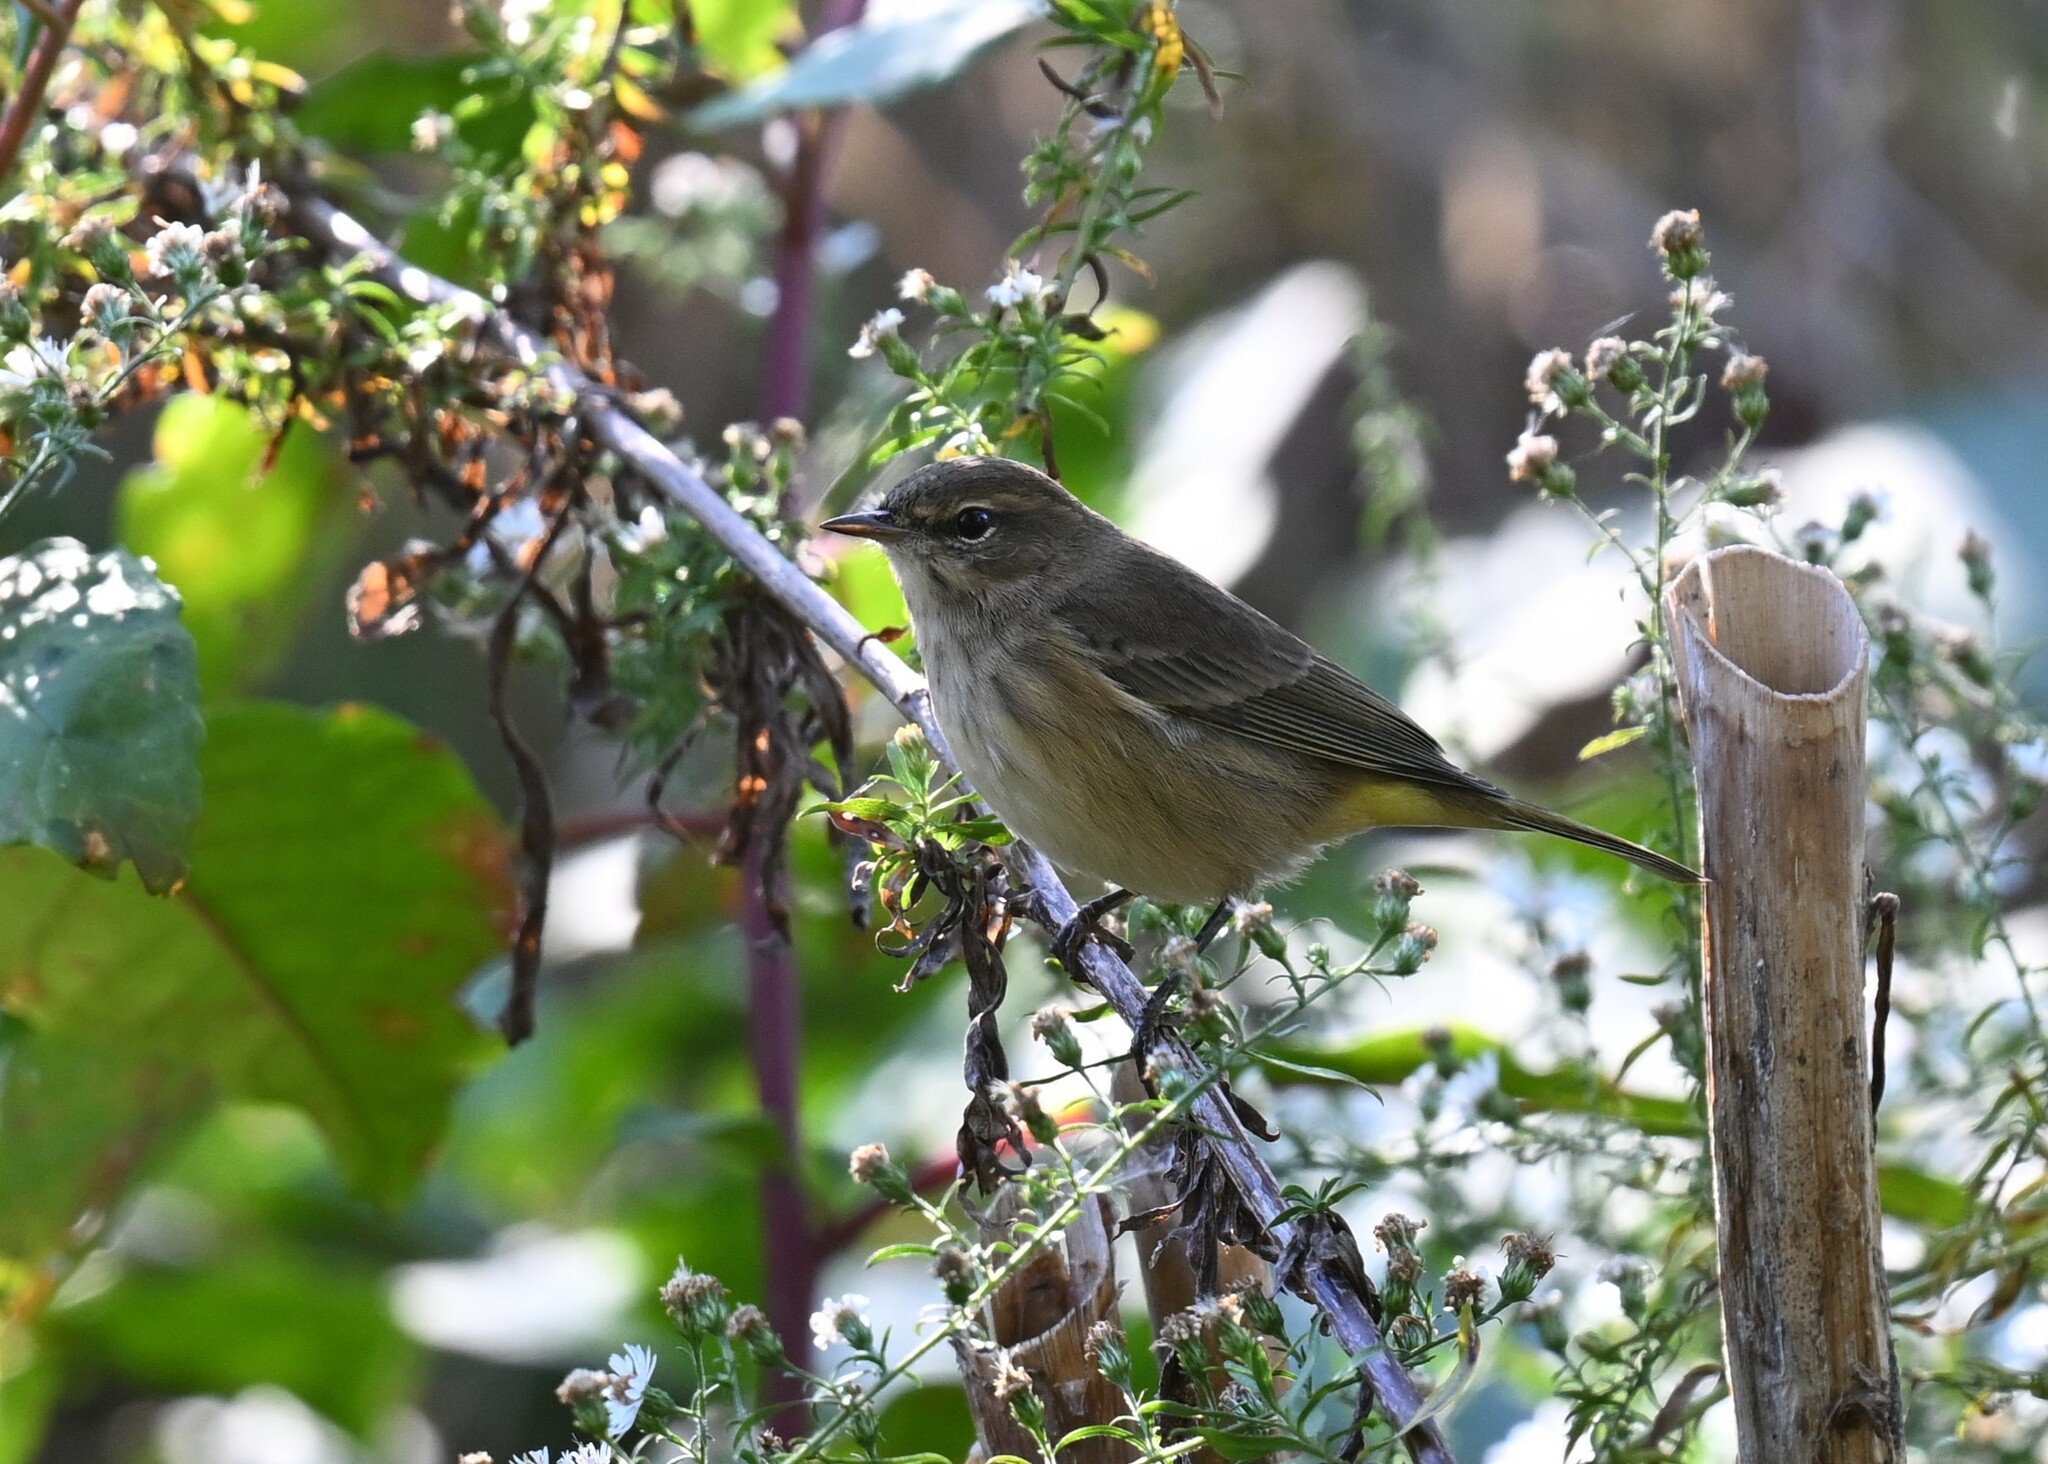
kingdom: Animalia
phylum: Chordata
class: Aves
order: Passeriformes
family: Parulidae
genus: Setophaga
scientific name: Setophaga palmarum
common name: Palm warbler
